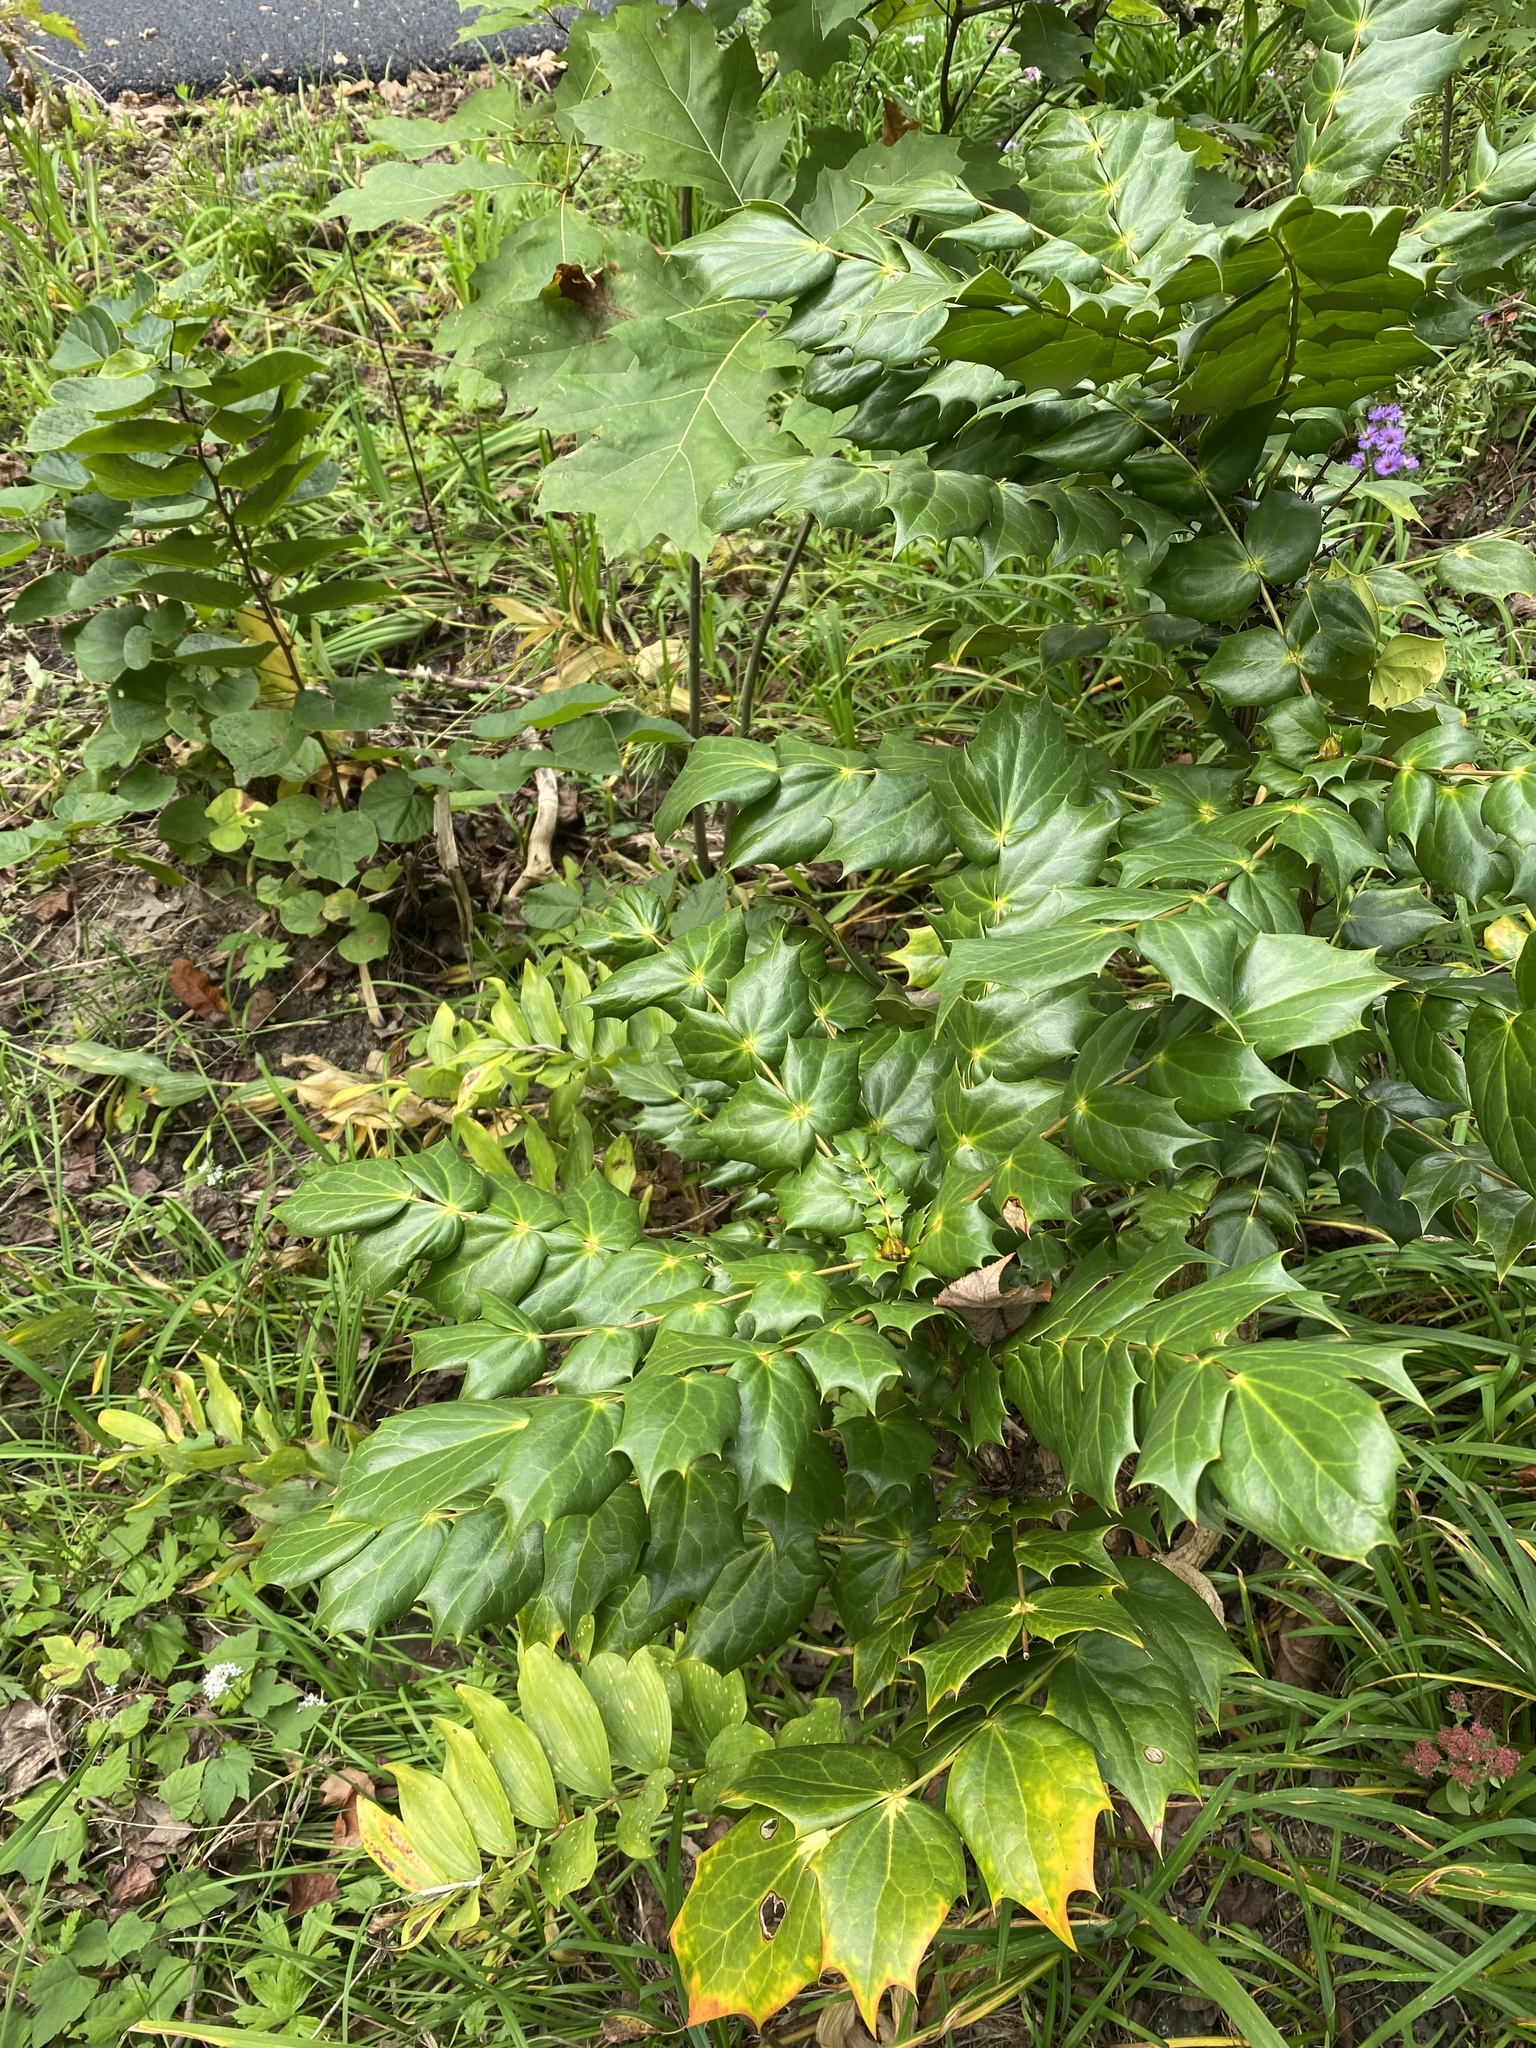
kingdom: Plantae
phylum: Tracheophyta
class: Magnoliopsida
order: Ranunculales
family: Berberidaceae
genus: Mahonia
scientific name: Mahonia bealei
